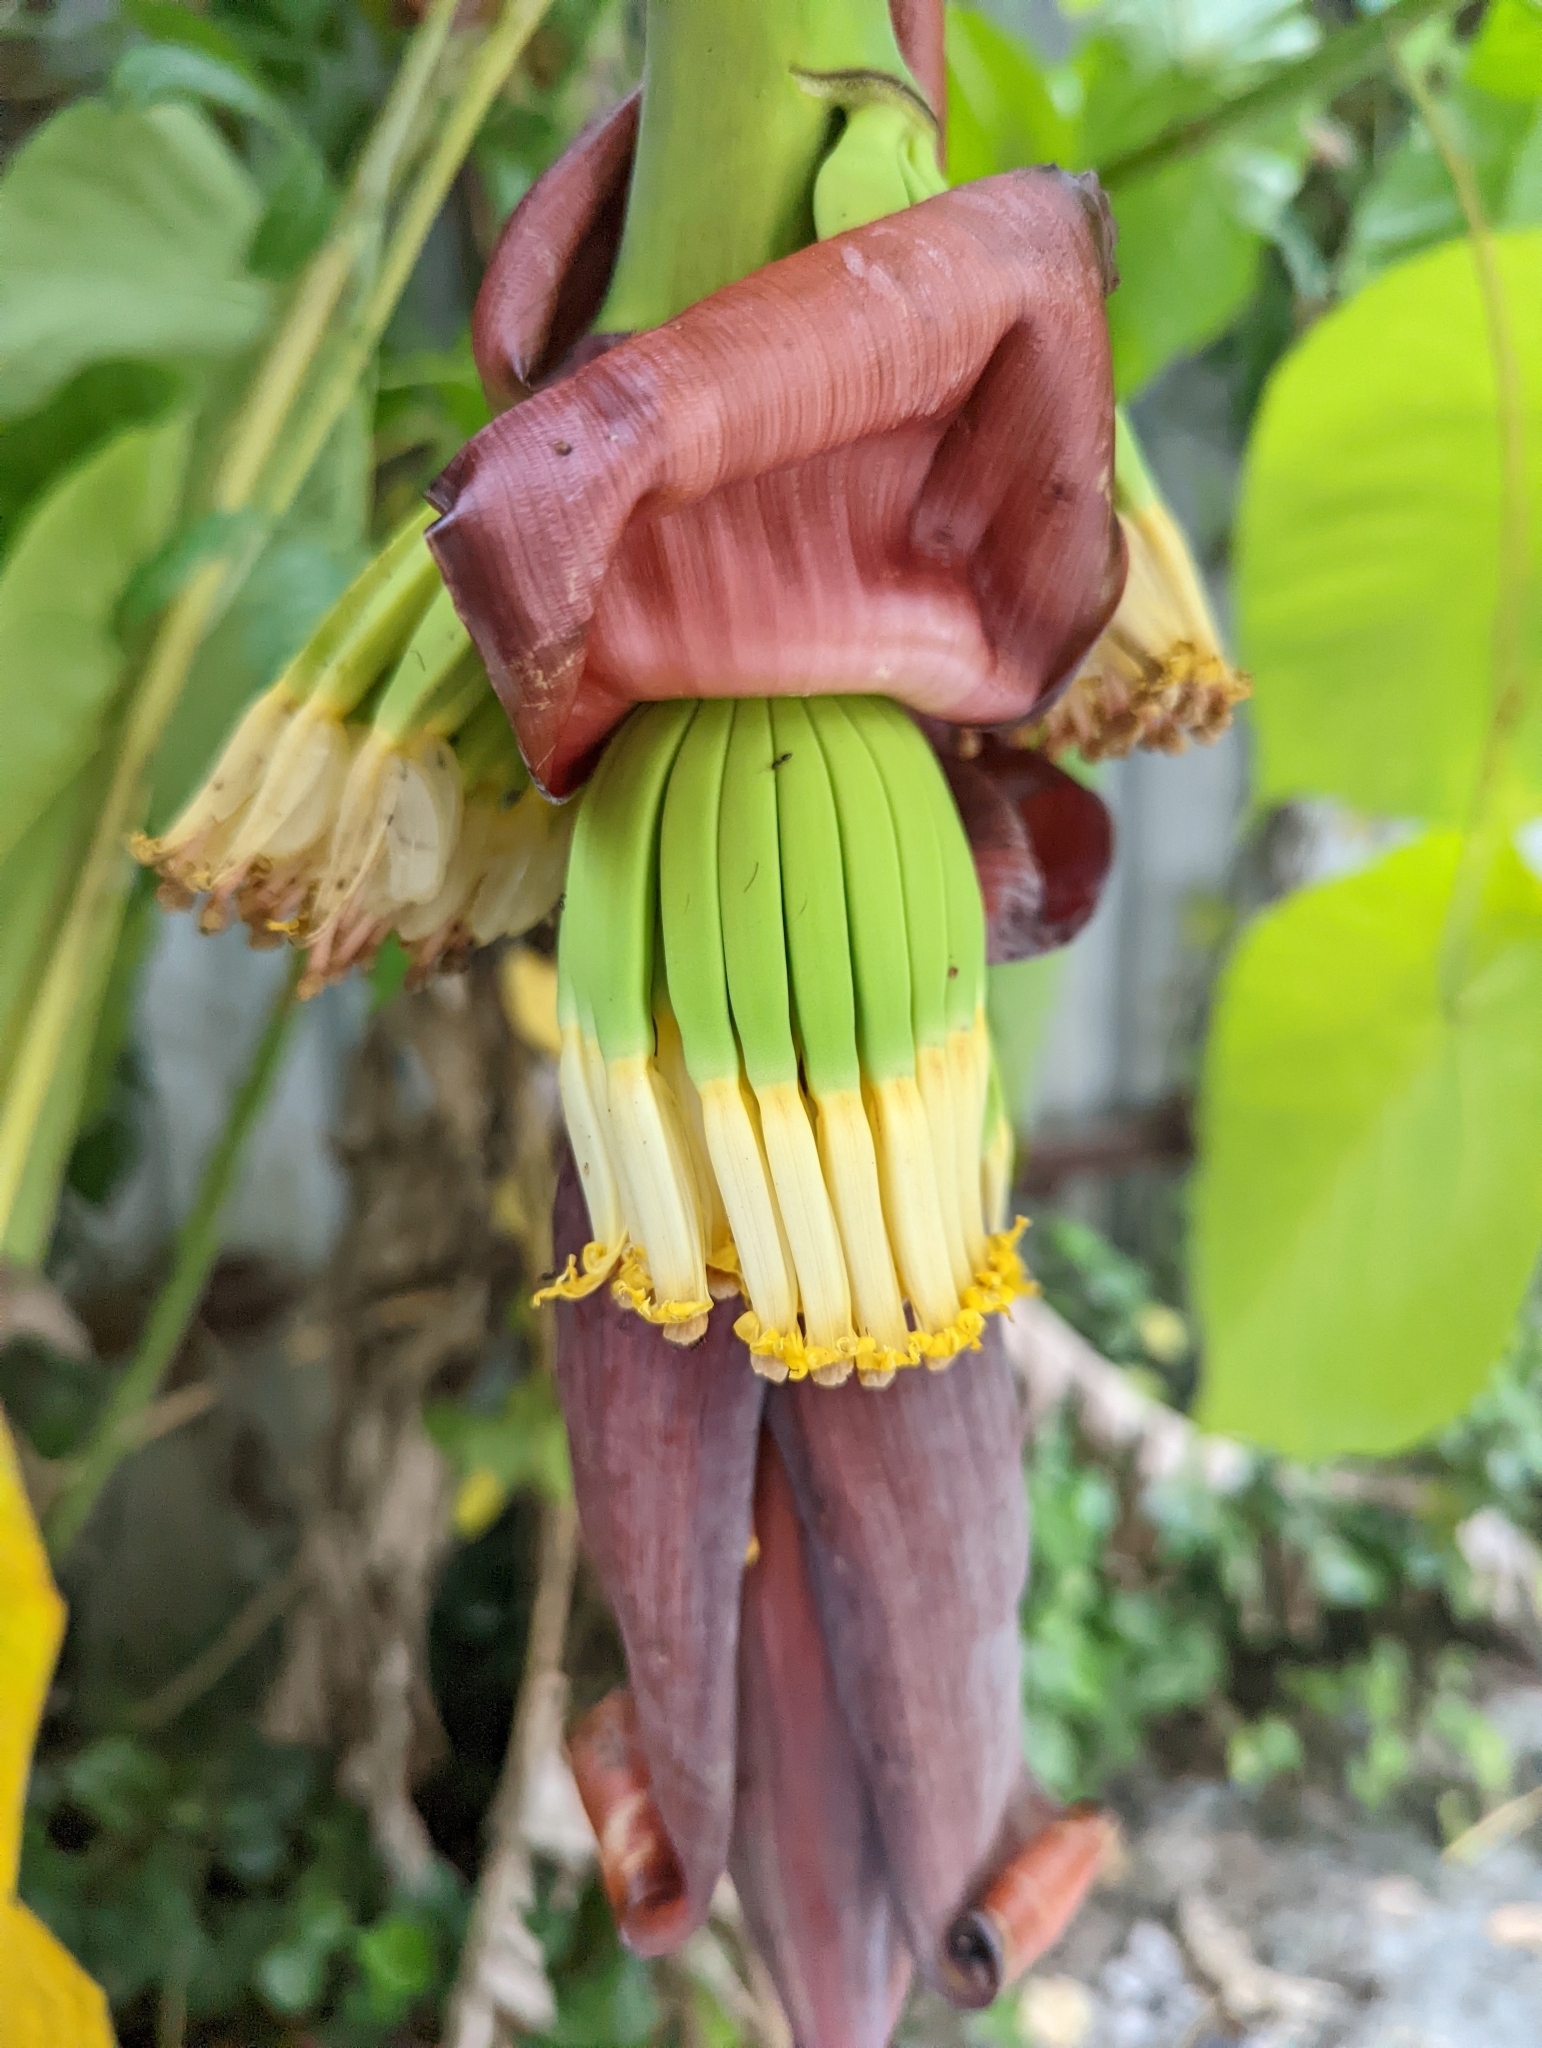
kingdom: Plantae
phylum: Tracheophyta
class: Liliopsida
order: Zingiberales
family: Musaceae
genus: Musa
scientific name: Musa acuminata
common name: Edible banana
